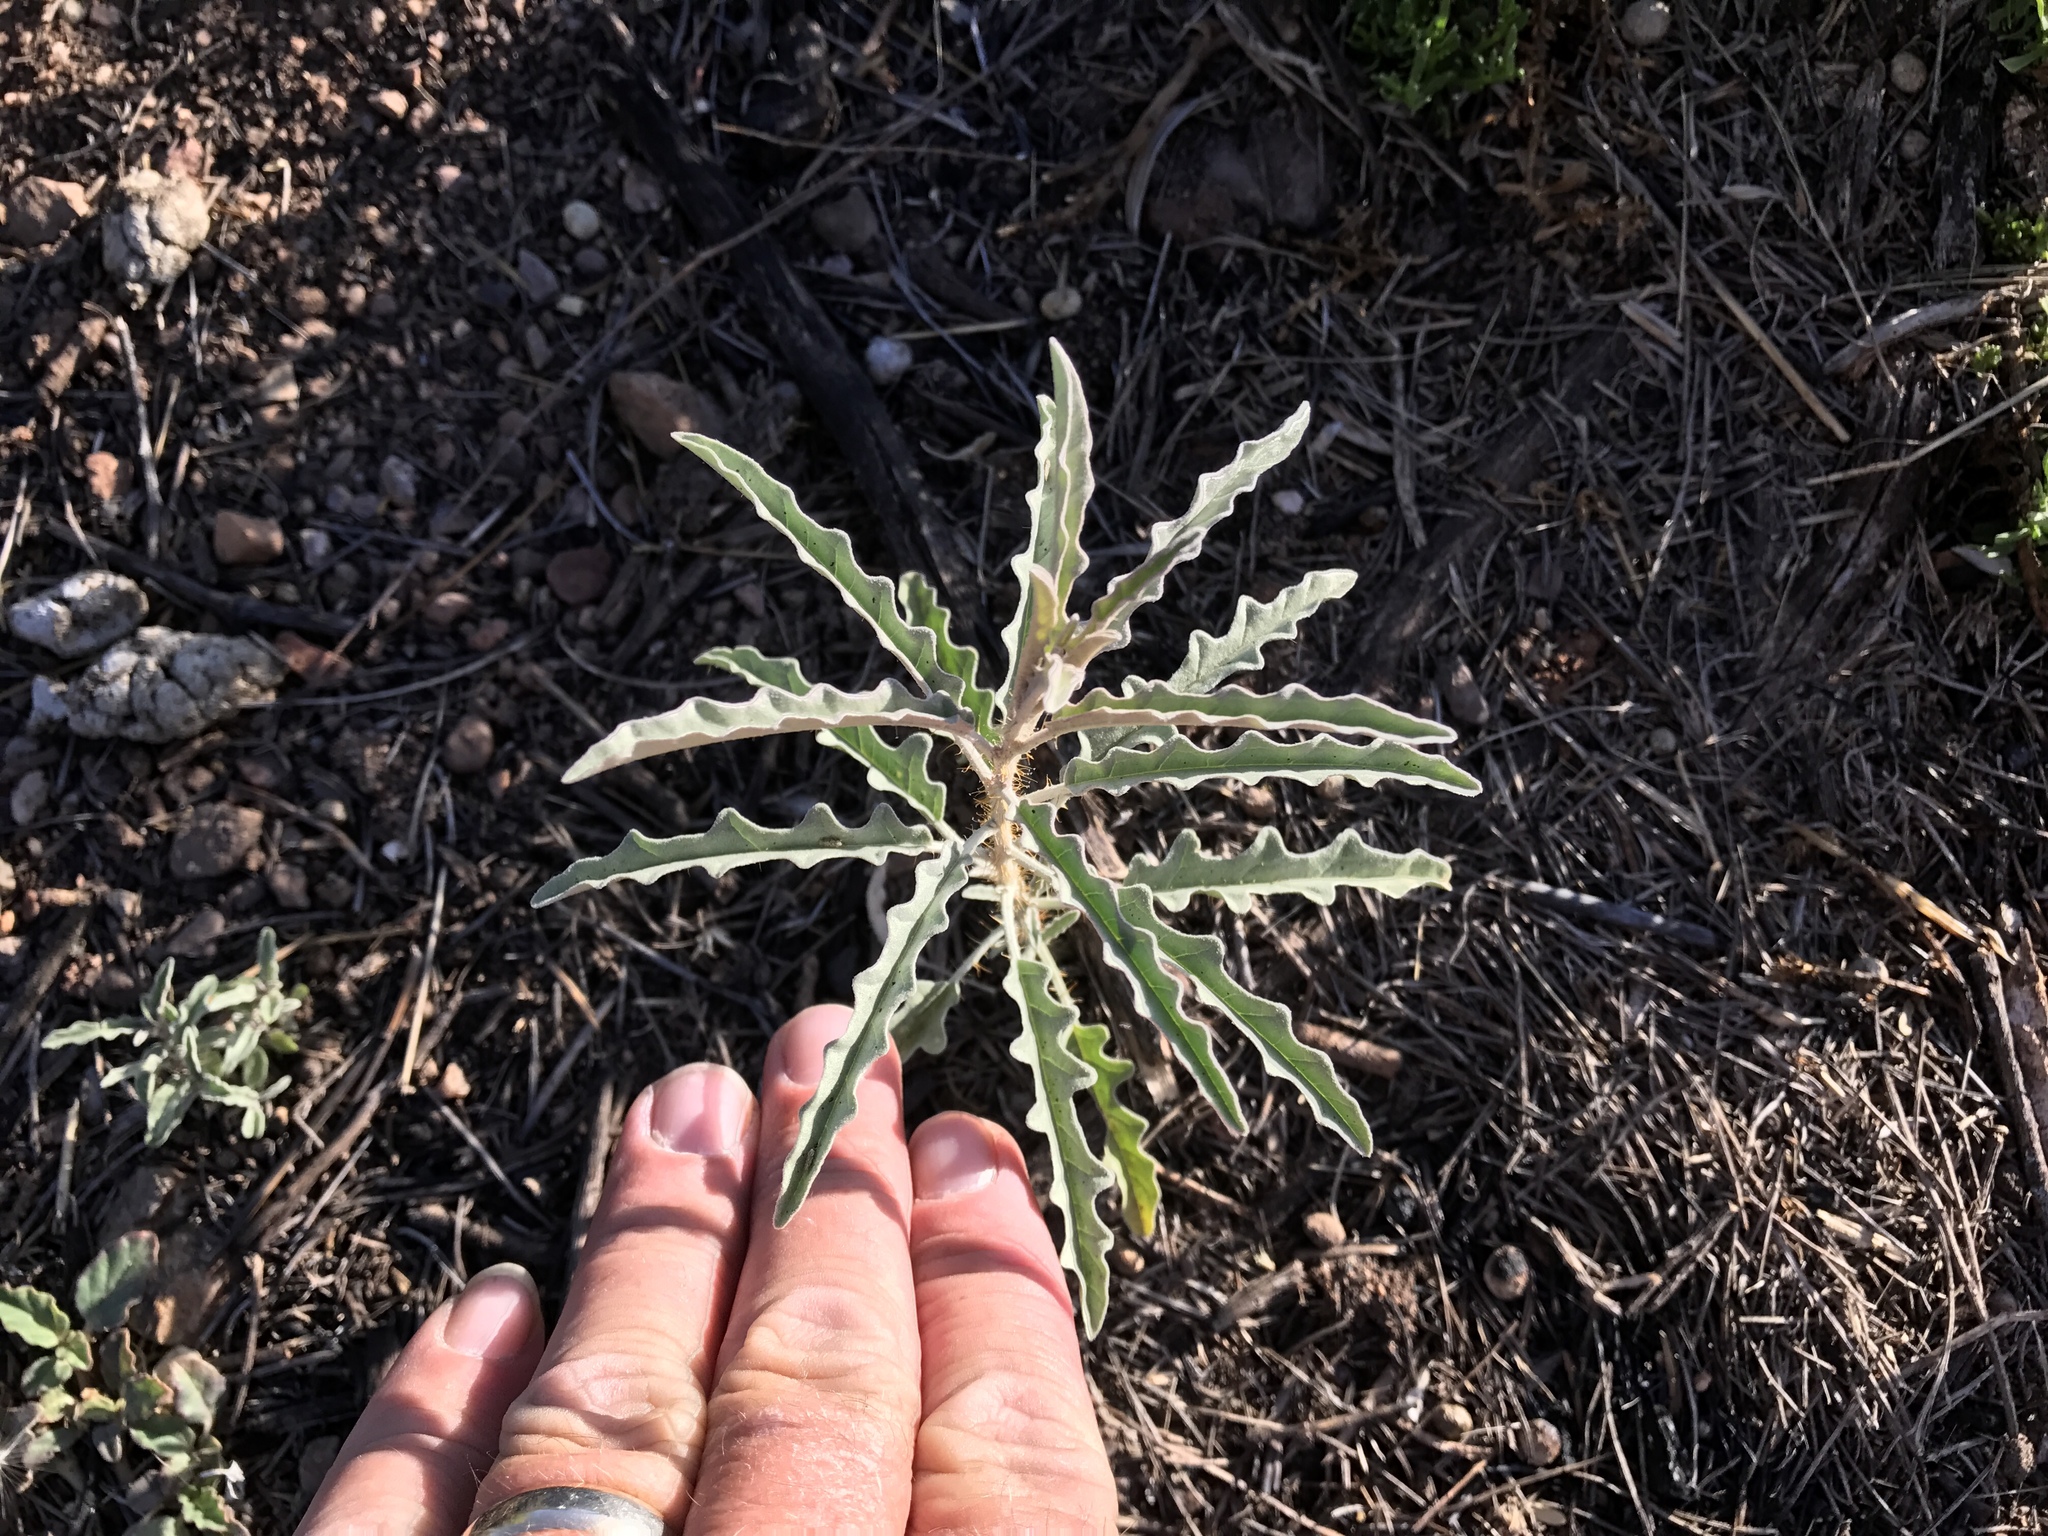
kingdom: Plantae
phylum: Tracheophyta
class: Magnoliopsida
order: Solanales
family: Solanaceae
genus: Solanum
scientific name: Solanum elaeagnifolium
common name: Silverleaf nightshade
